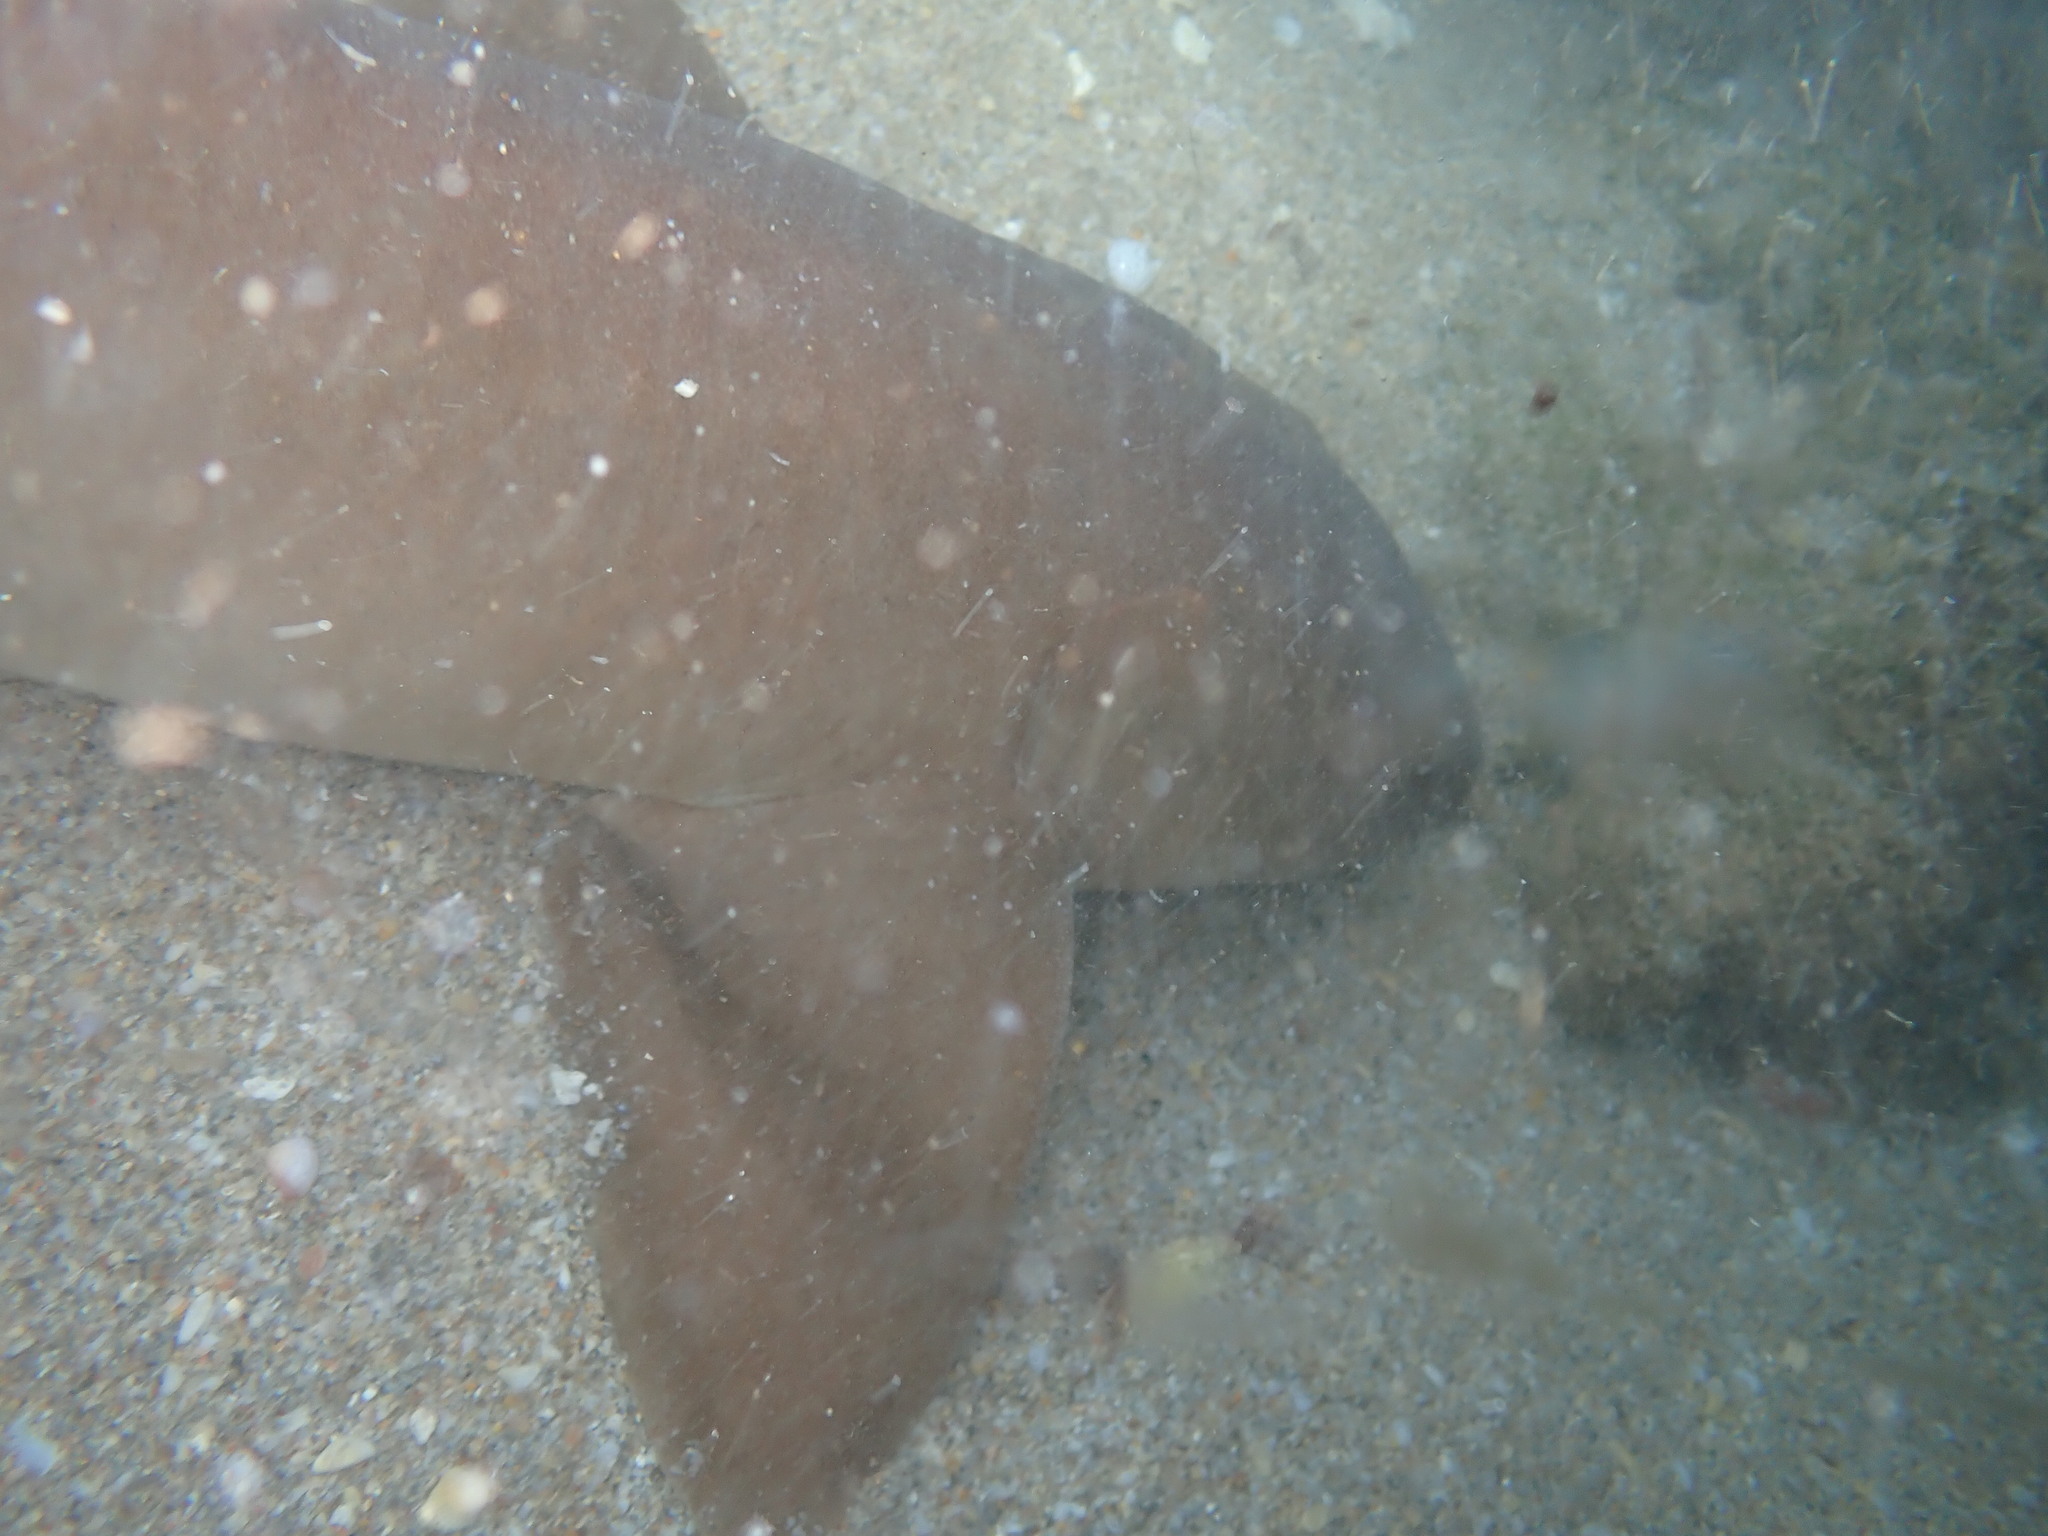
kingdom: Animalia
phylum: Chordata
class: Elasmobranchii
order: Orectolobiformes
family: Ginglymostomatidae
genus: Ginglymostoma
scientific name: Ginglymostoma cirratum
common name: Nurse shark
